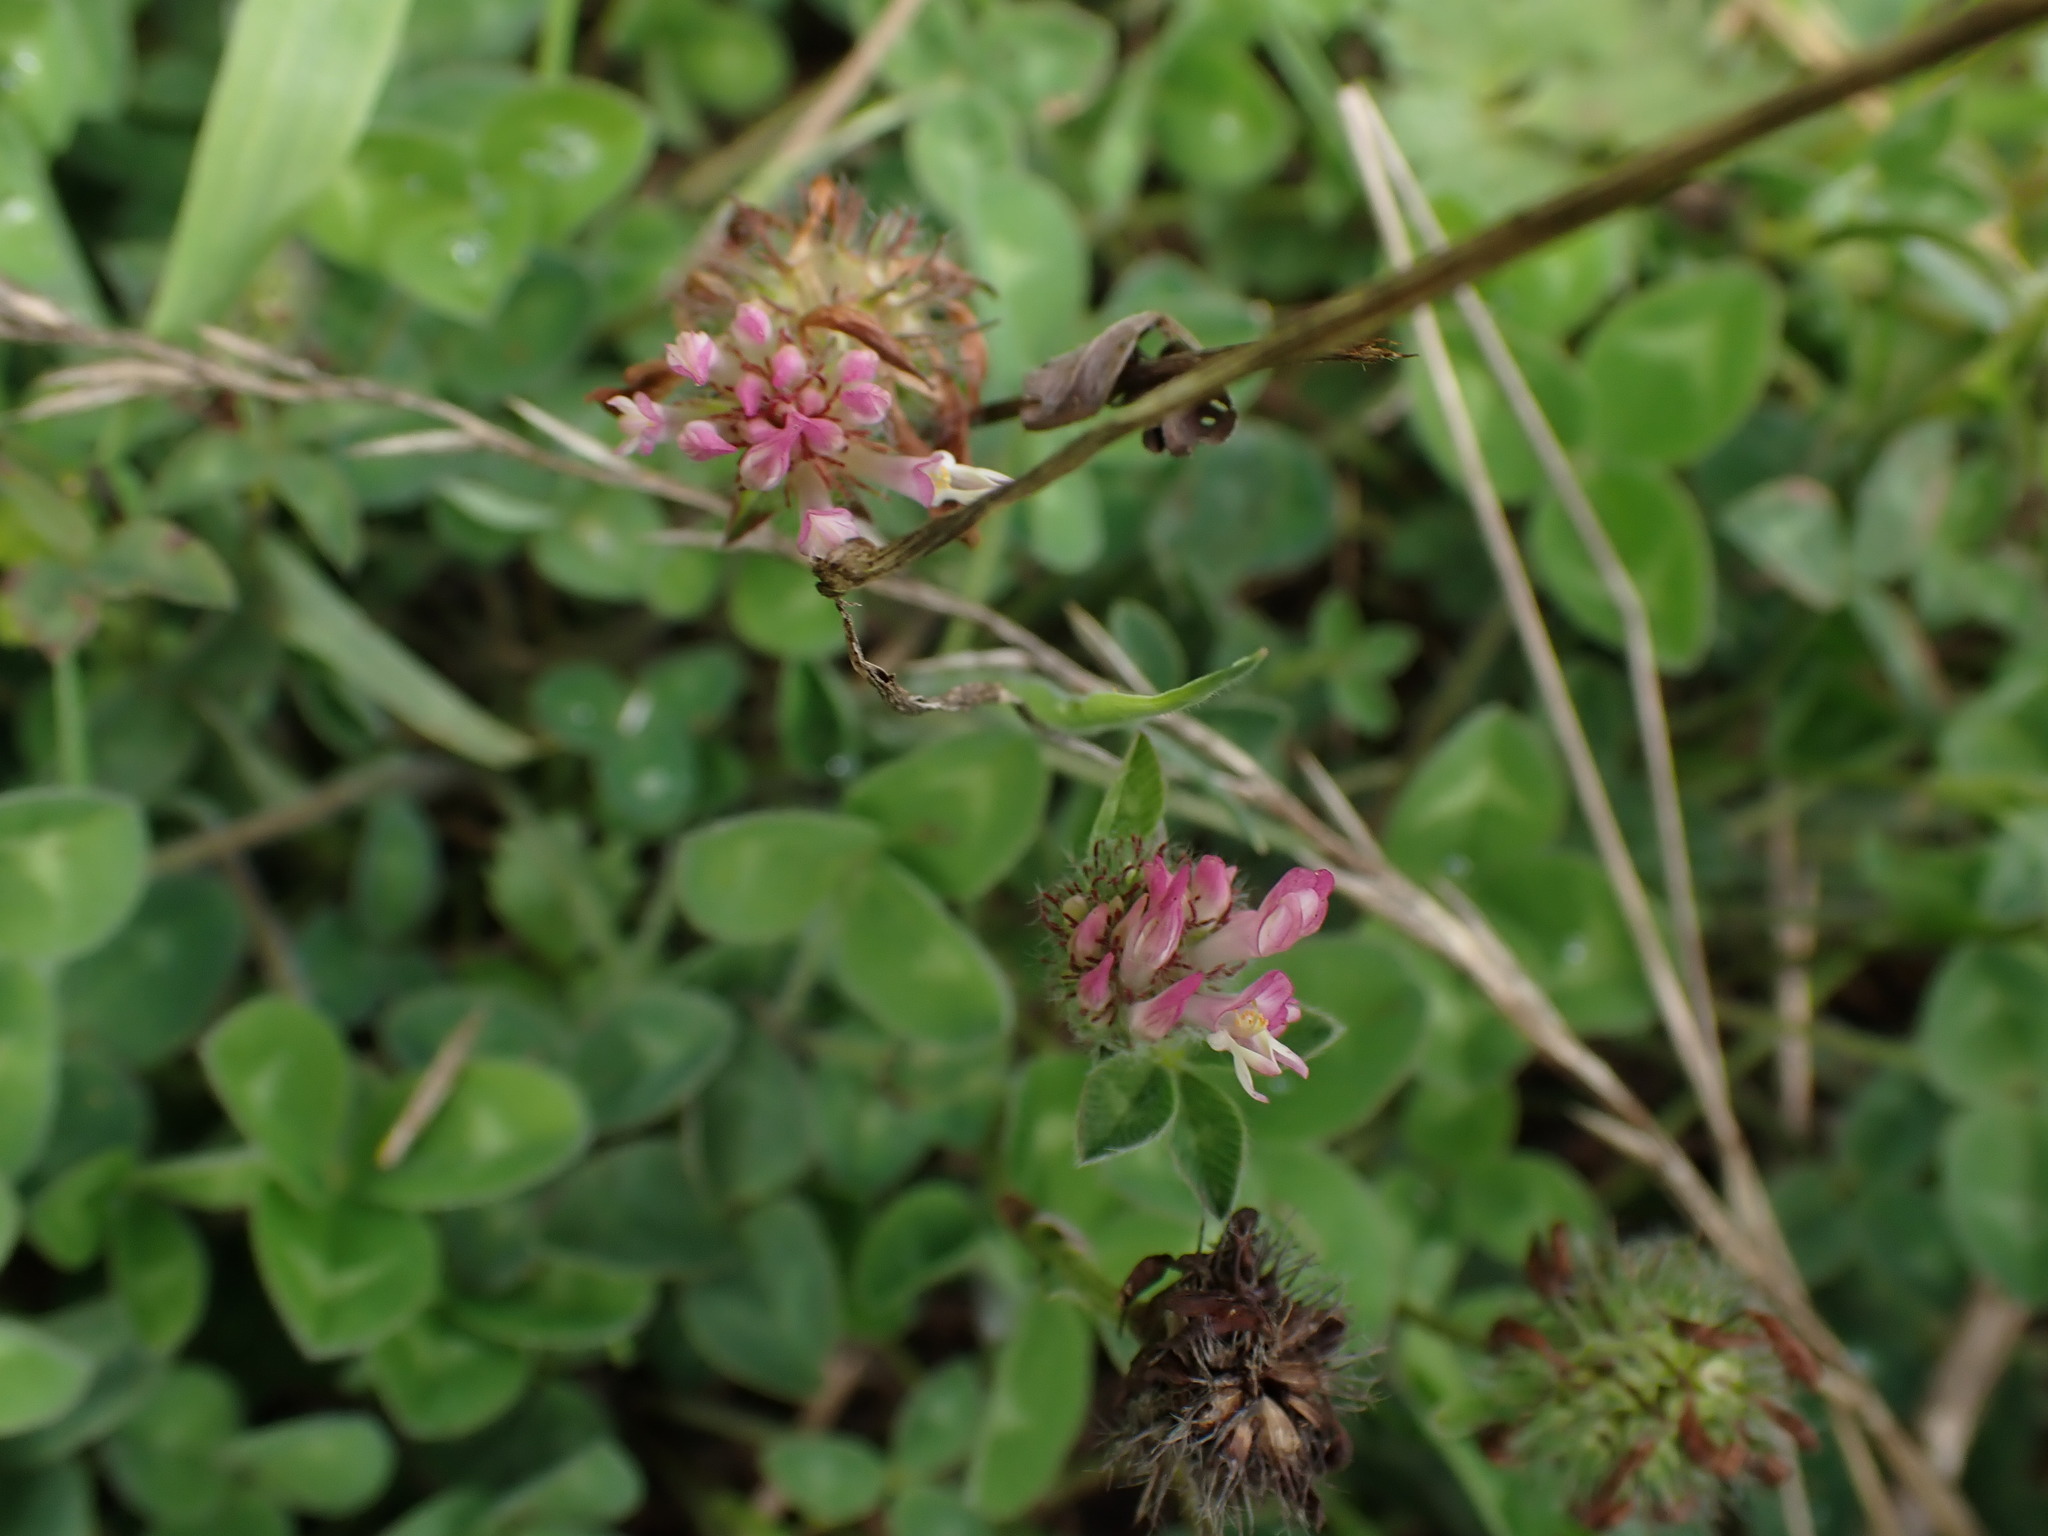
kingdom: Plantae
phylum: Tracheophyta
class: Magnoliopsida
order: Fabales
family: Fabaceae
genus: Trifolium
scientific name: Trifolium pratense
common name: Red clover
